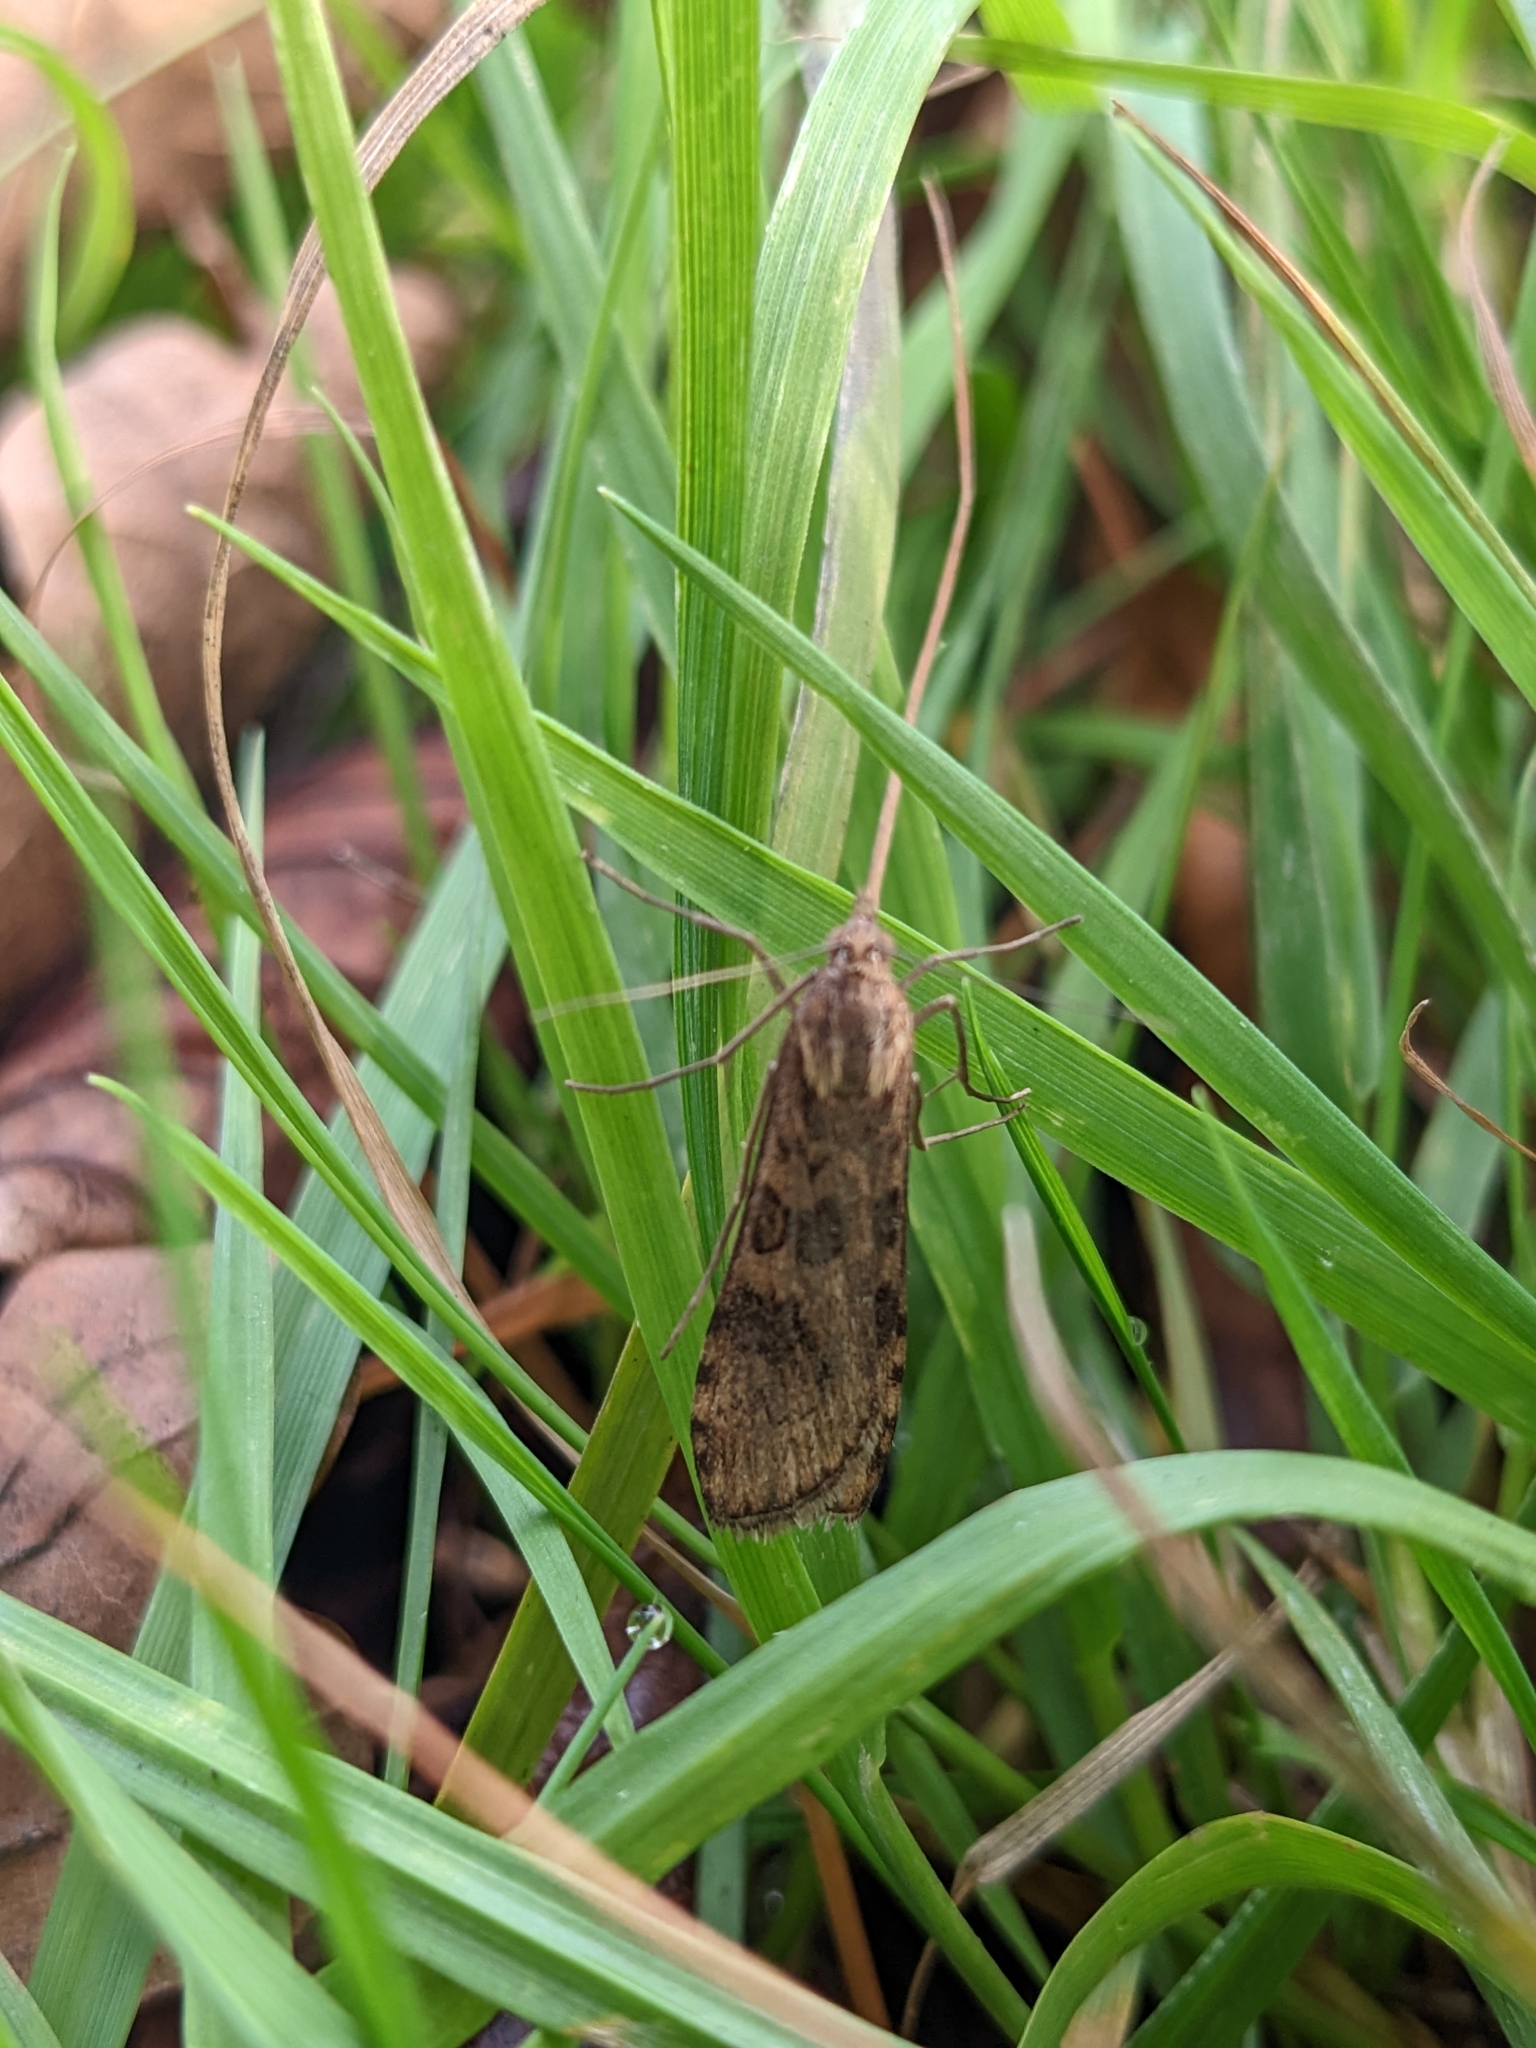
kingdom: Animalia
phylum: Arthropoda
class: Insecta
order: Lepidoptera
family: Crambidae
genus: Nomophila
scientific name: Nomophila noctuella
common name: Rush veneer
